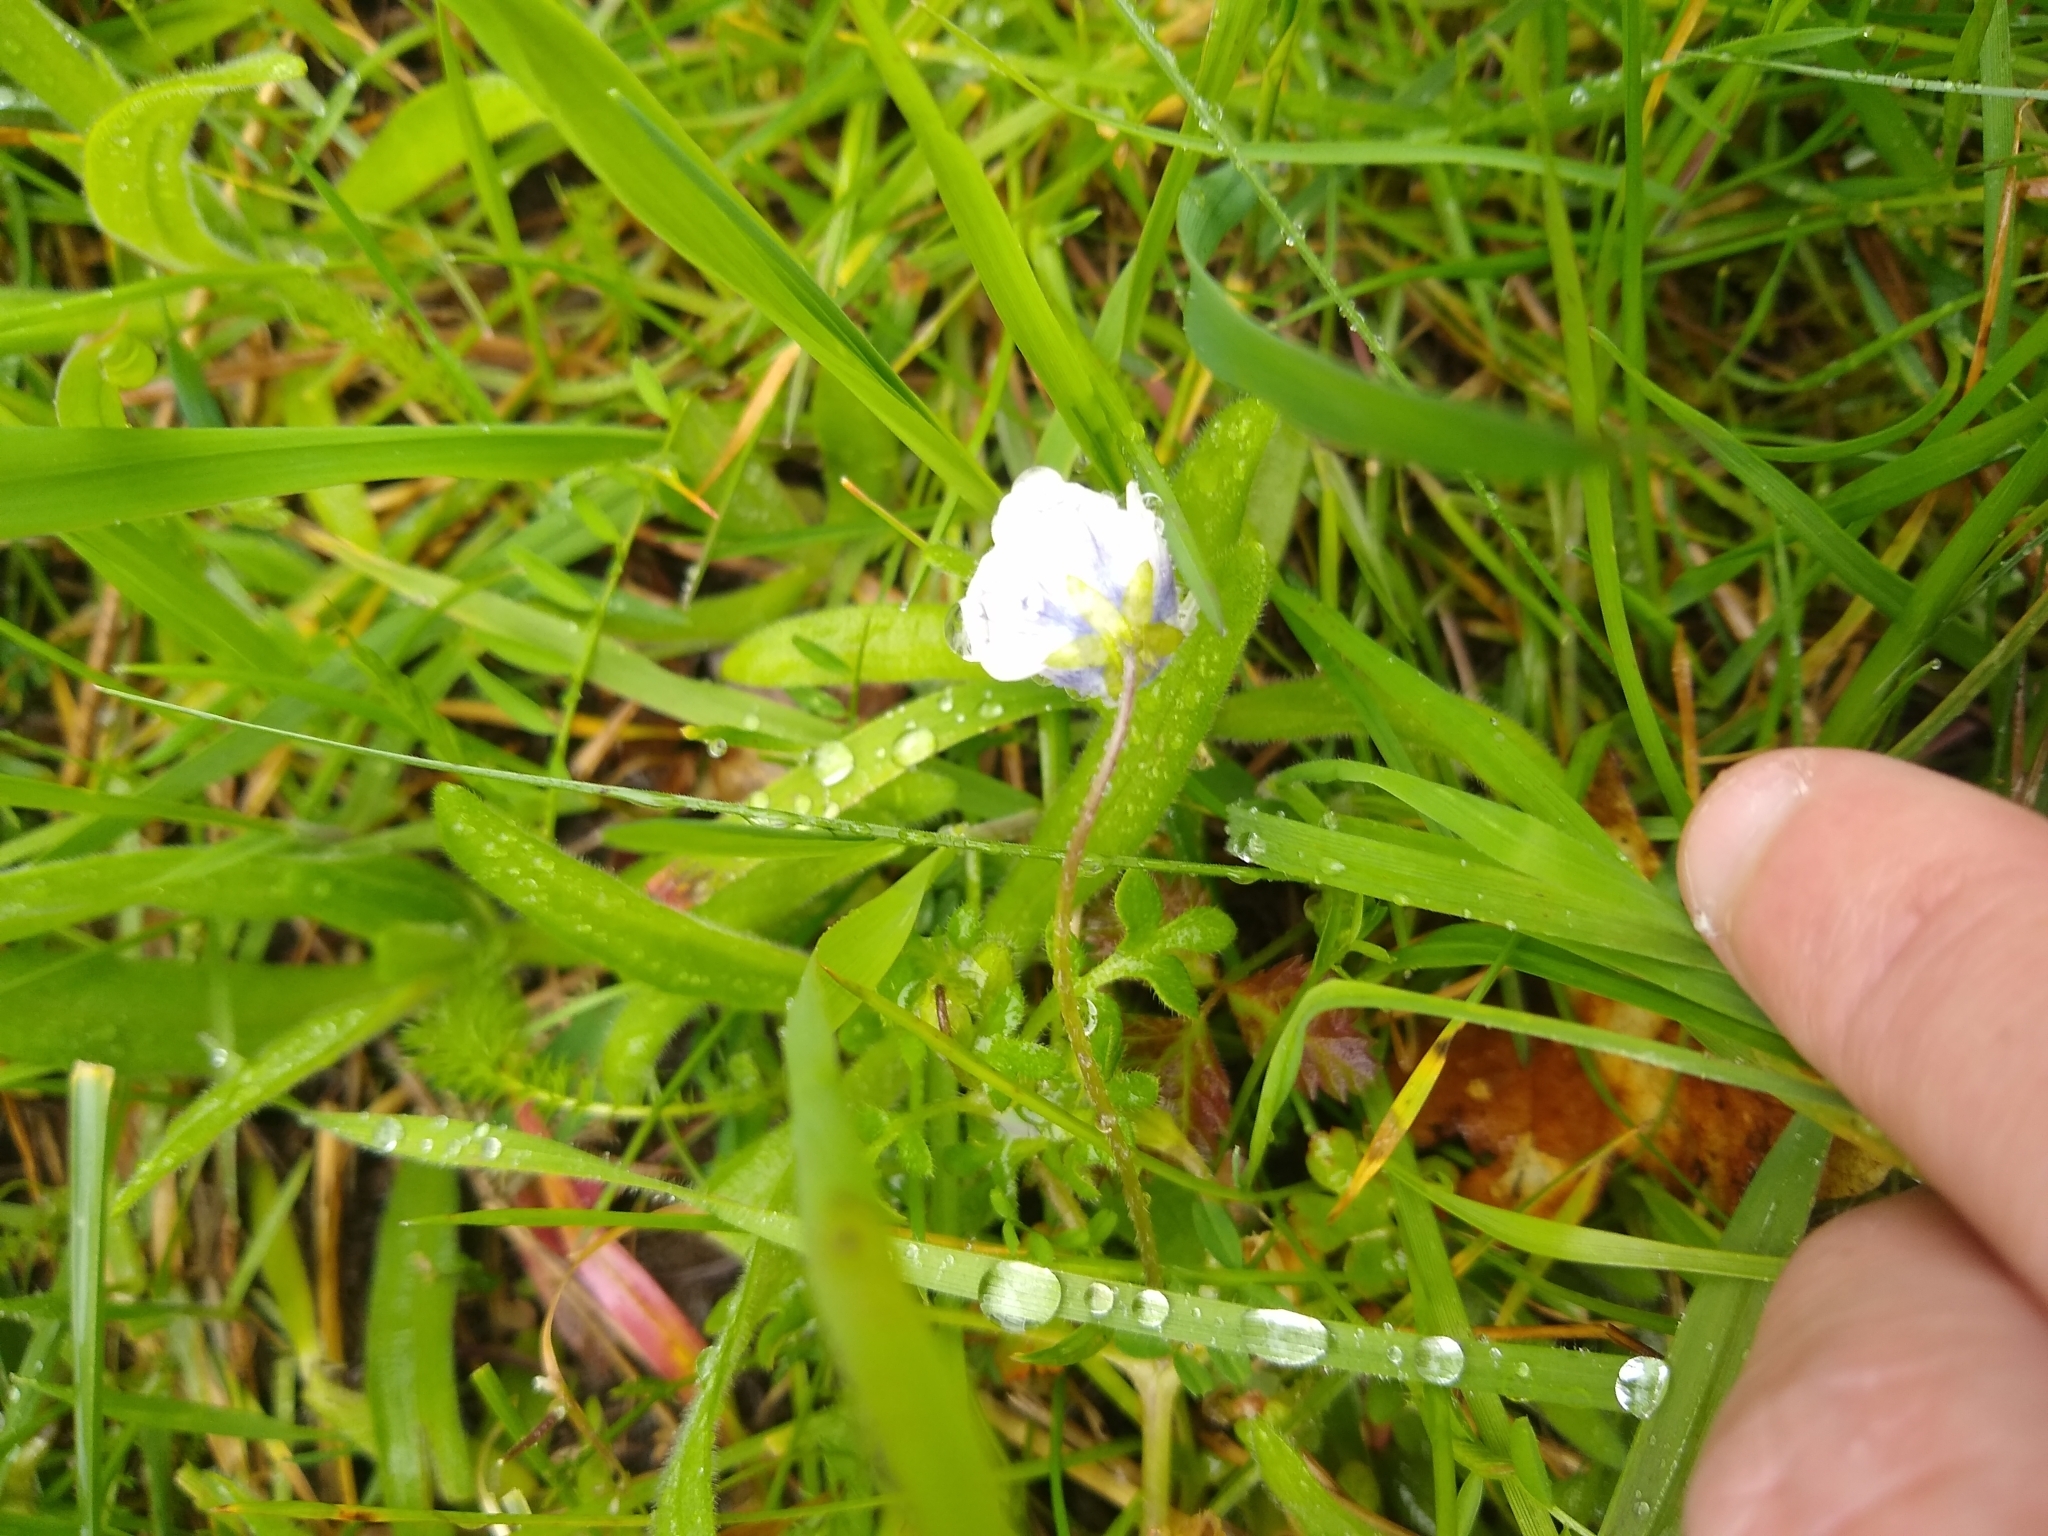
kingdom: Plantae
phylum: Tracheophyta
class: Magnoliopsida
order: Boraginales
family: Hydrophyllaceae
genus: Nemophila
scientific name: Nemophila menziesii
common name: Baby's-blue-eyes
